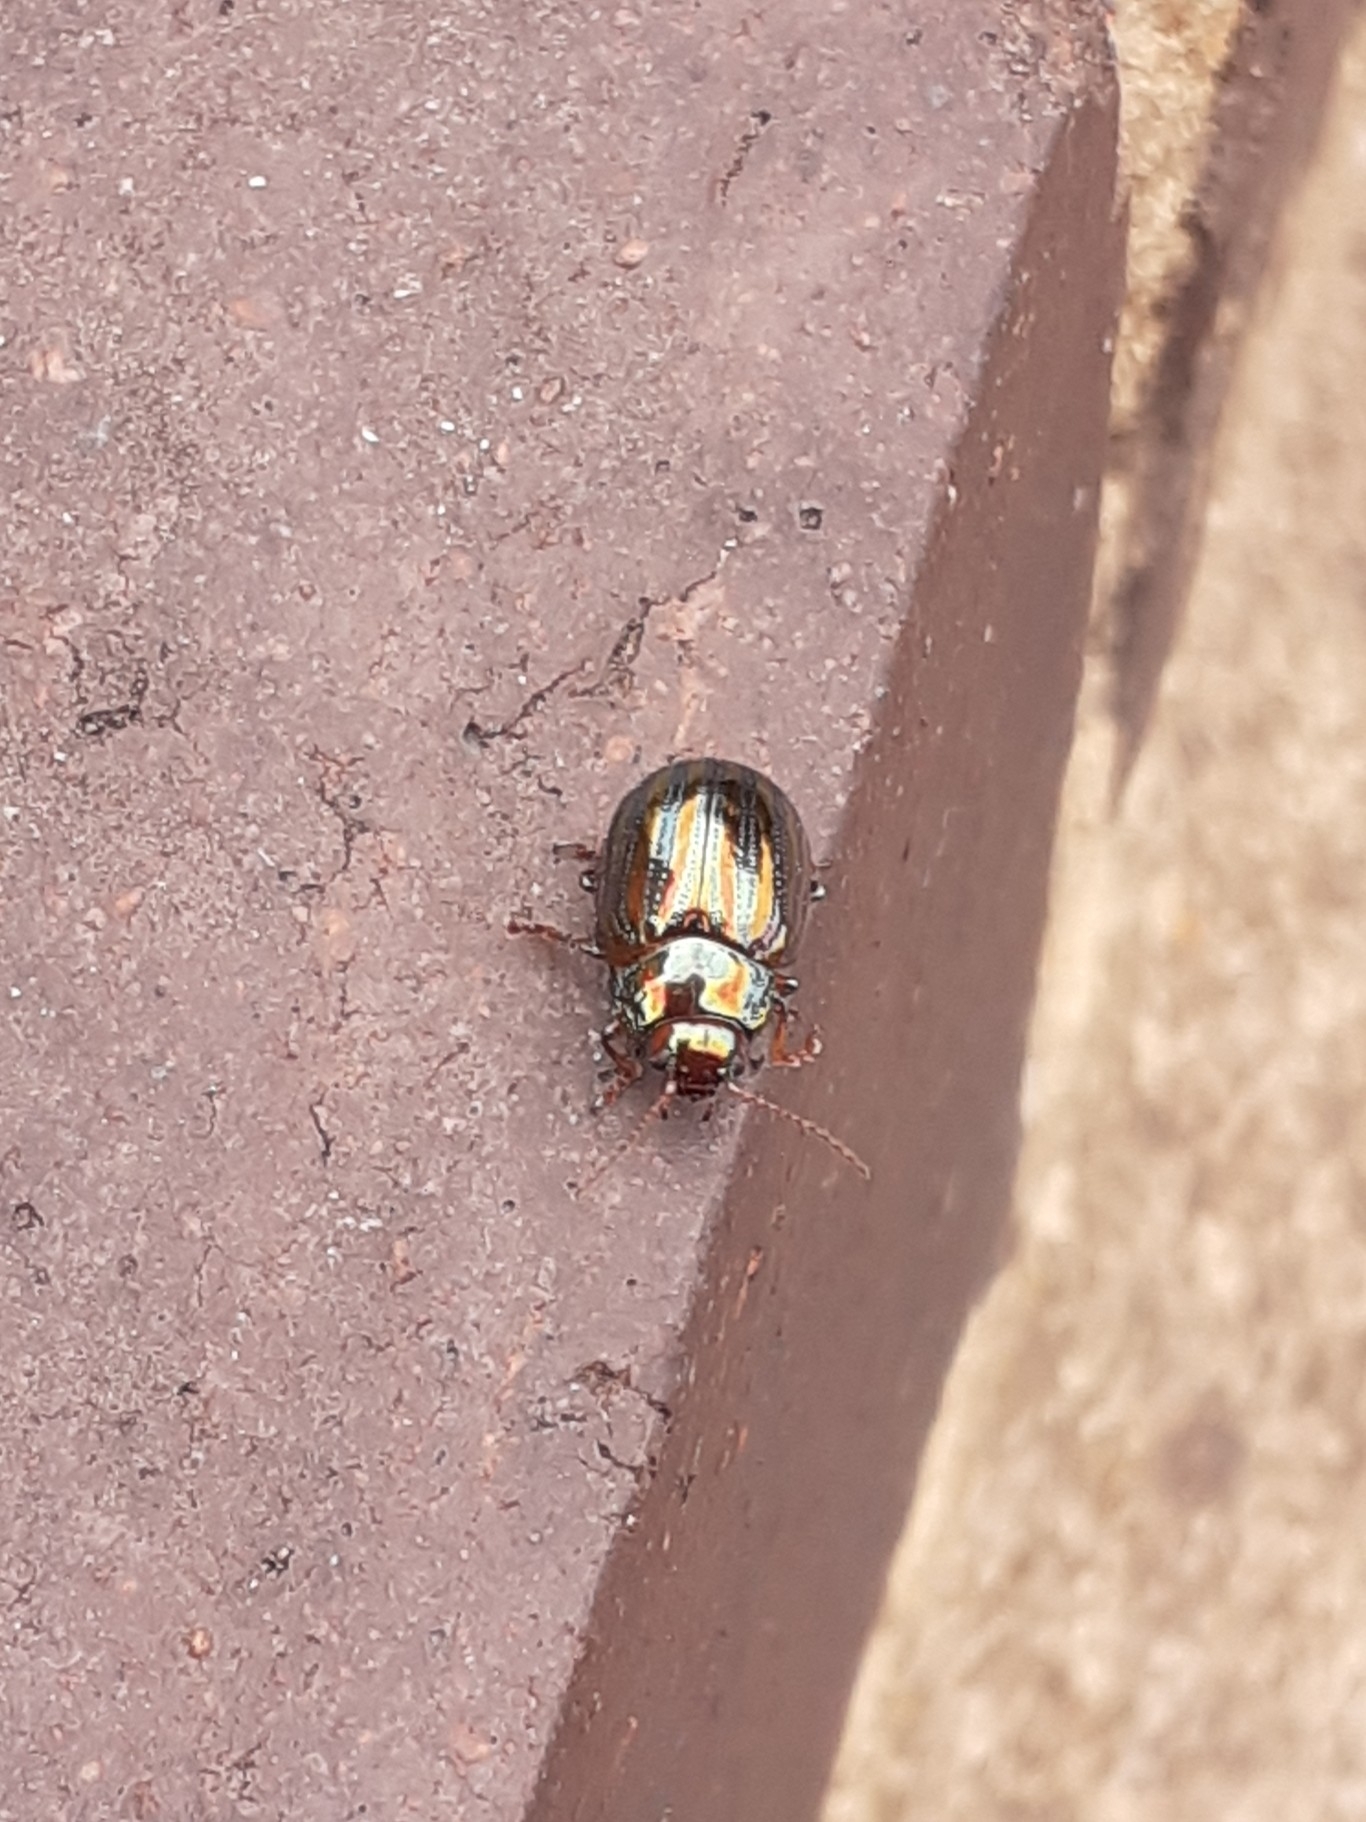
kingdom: Animalia
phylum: Arthropoda
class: Insecta
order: Coleoptera
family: Chrysomelidae
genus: Chrysolina
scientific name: Chrysolina americana
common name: Rosemary beetle
